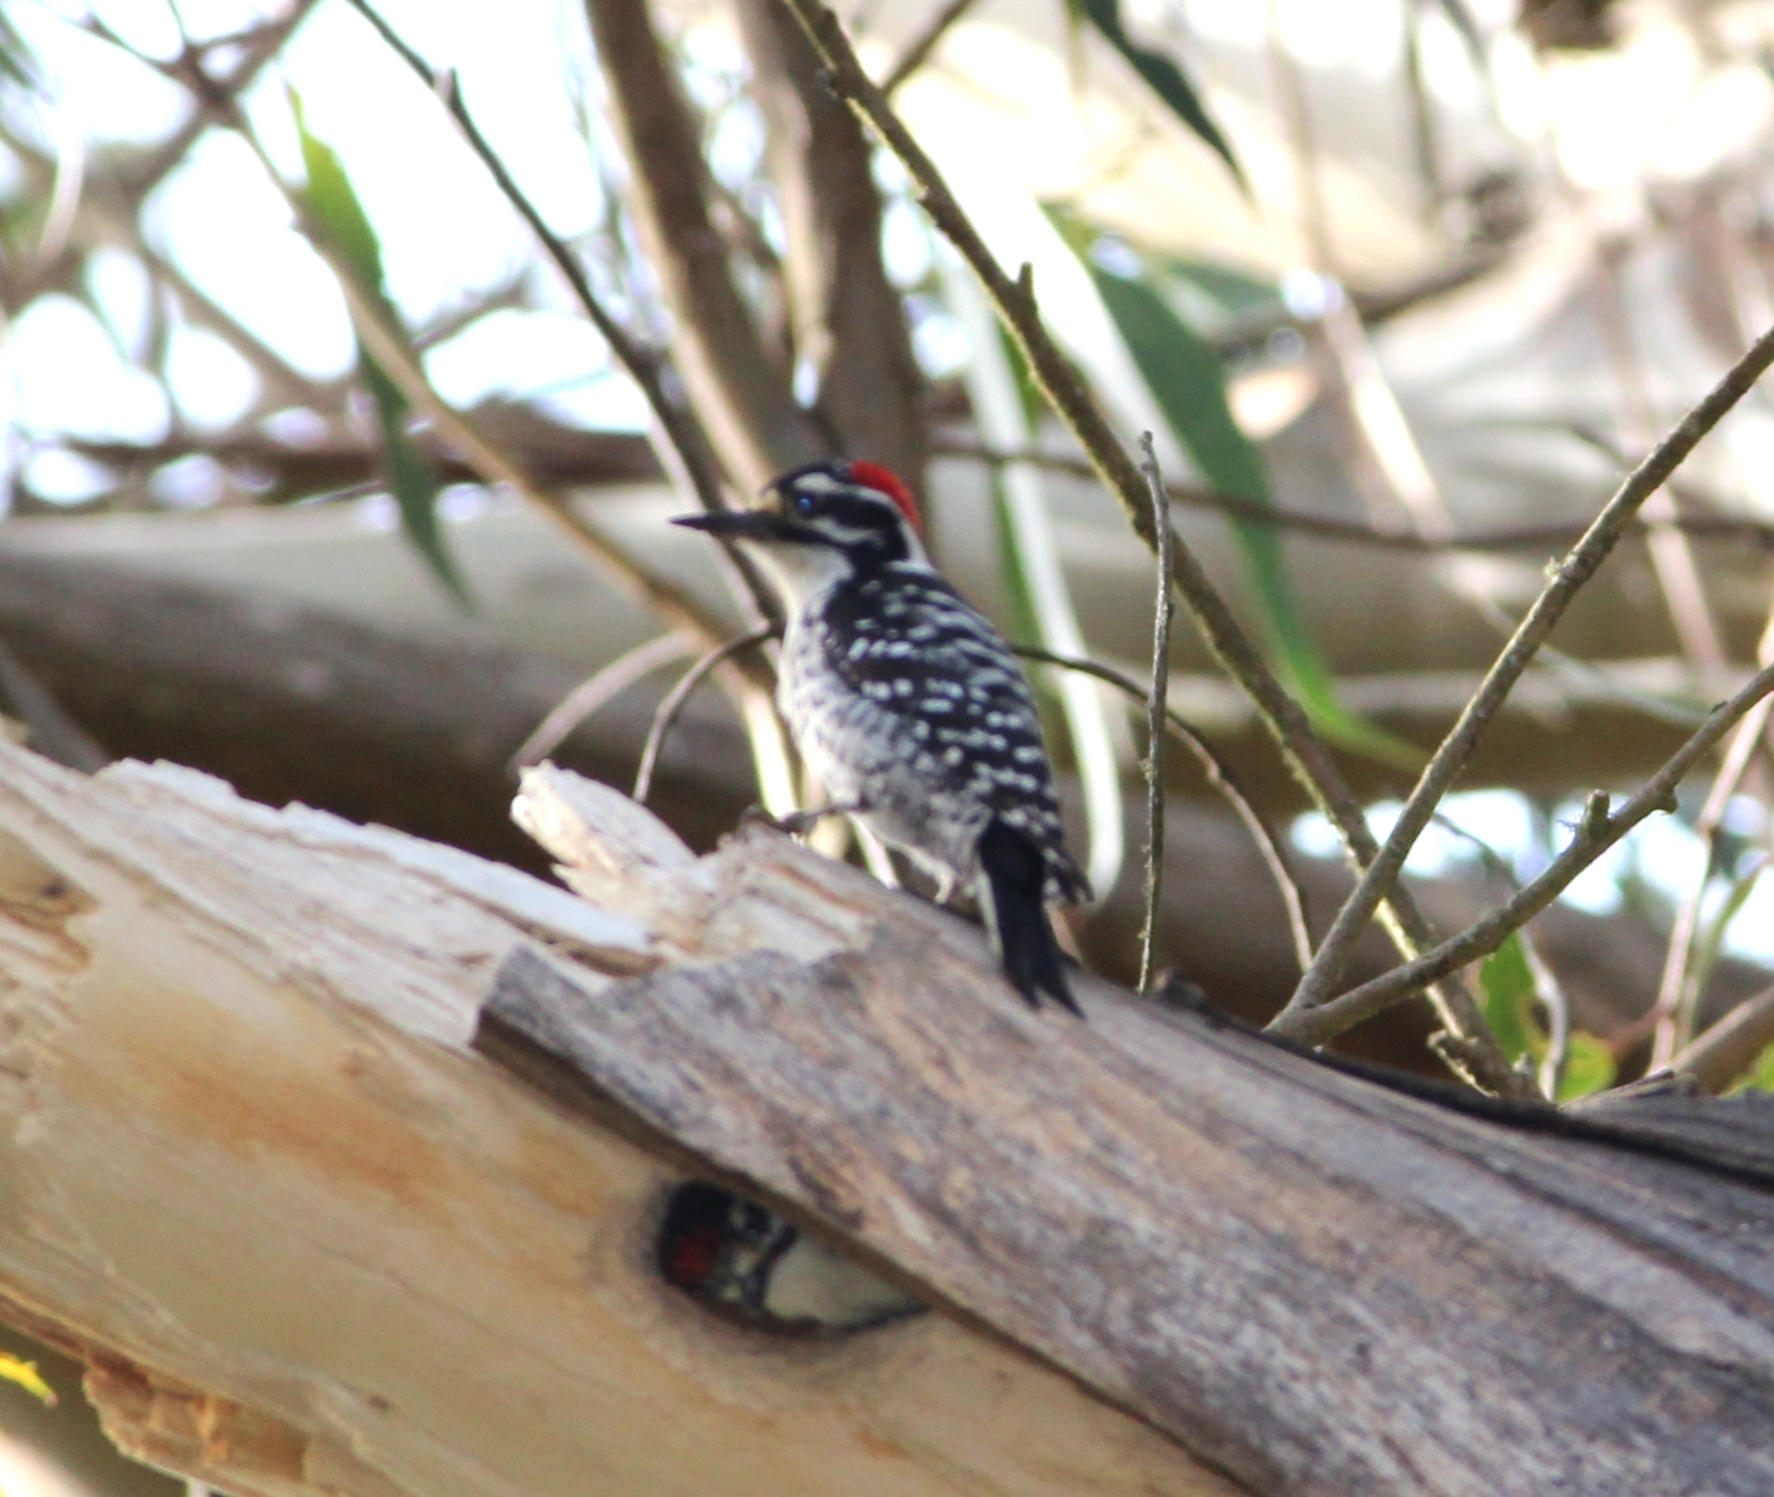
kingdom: Animalia
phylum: Chordata
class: Aves
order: Piciformes
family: Picidae
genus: Dryobates
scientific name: Dryobates nuttallii
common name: Nuttall's woodpecker
